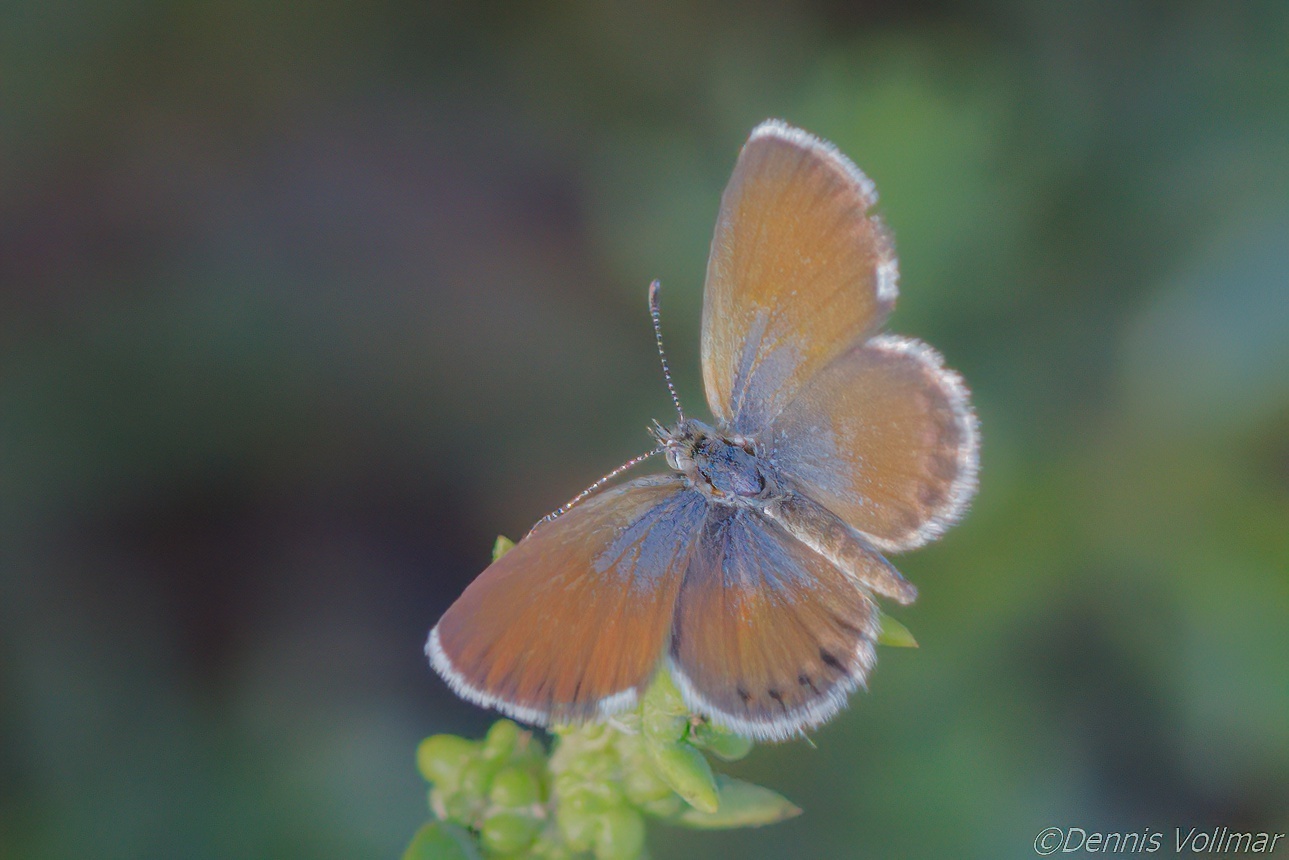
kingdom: Animalia
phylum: Arthropoda
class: Insecta
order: Lepidoptera
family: Lycaenidae
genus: Brephidium
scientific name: Brephidium exilis
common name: Pygmy blue
